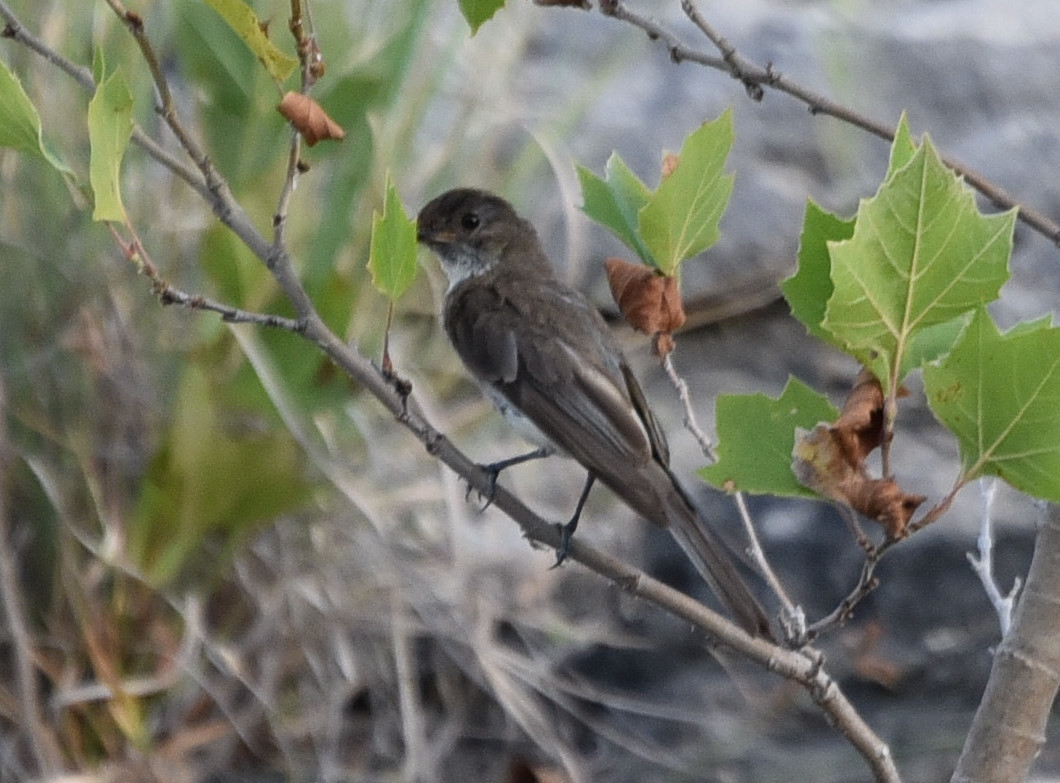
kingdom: Animalia
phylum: Chordata
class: Aves
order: Passeriformes
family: Tyrannidae
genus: Sayornis
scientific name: Sayornis phoebe
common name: Eastern phoebe
